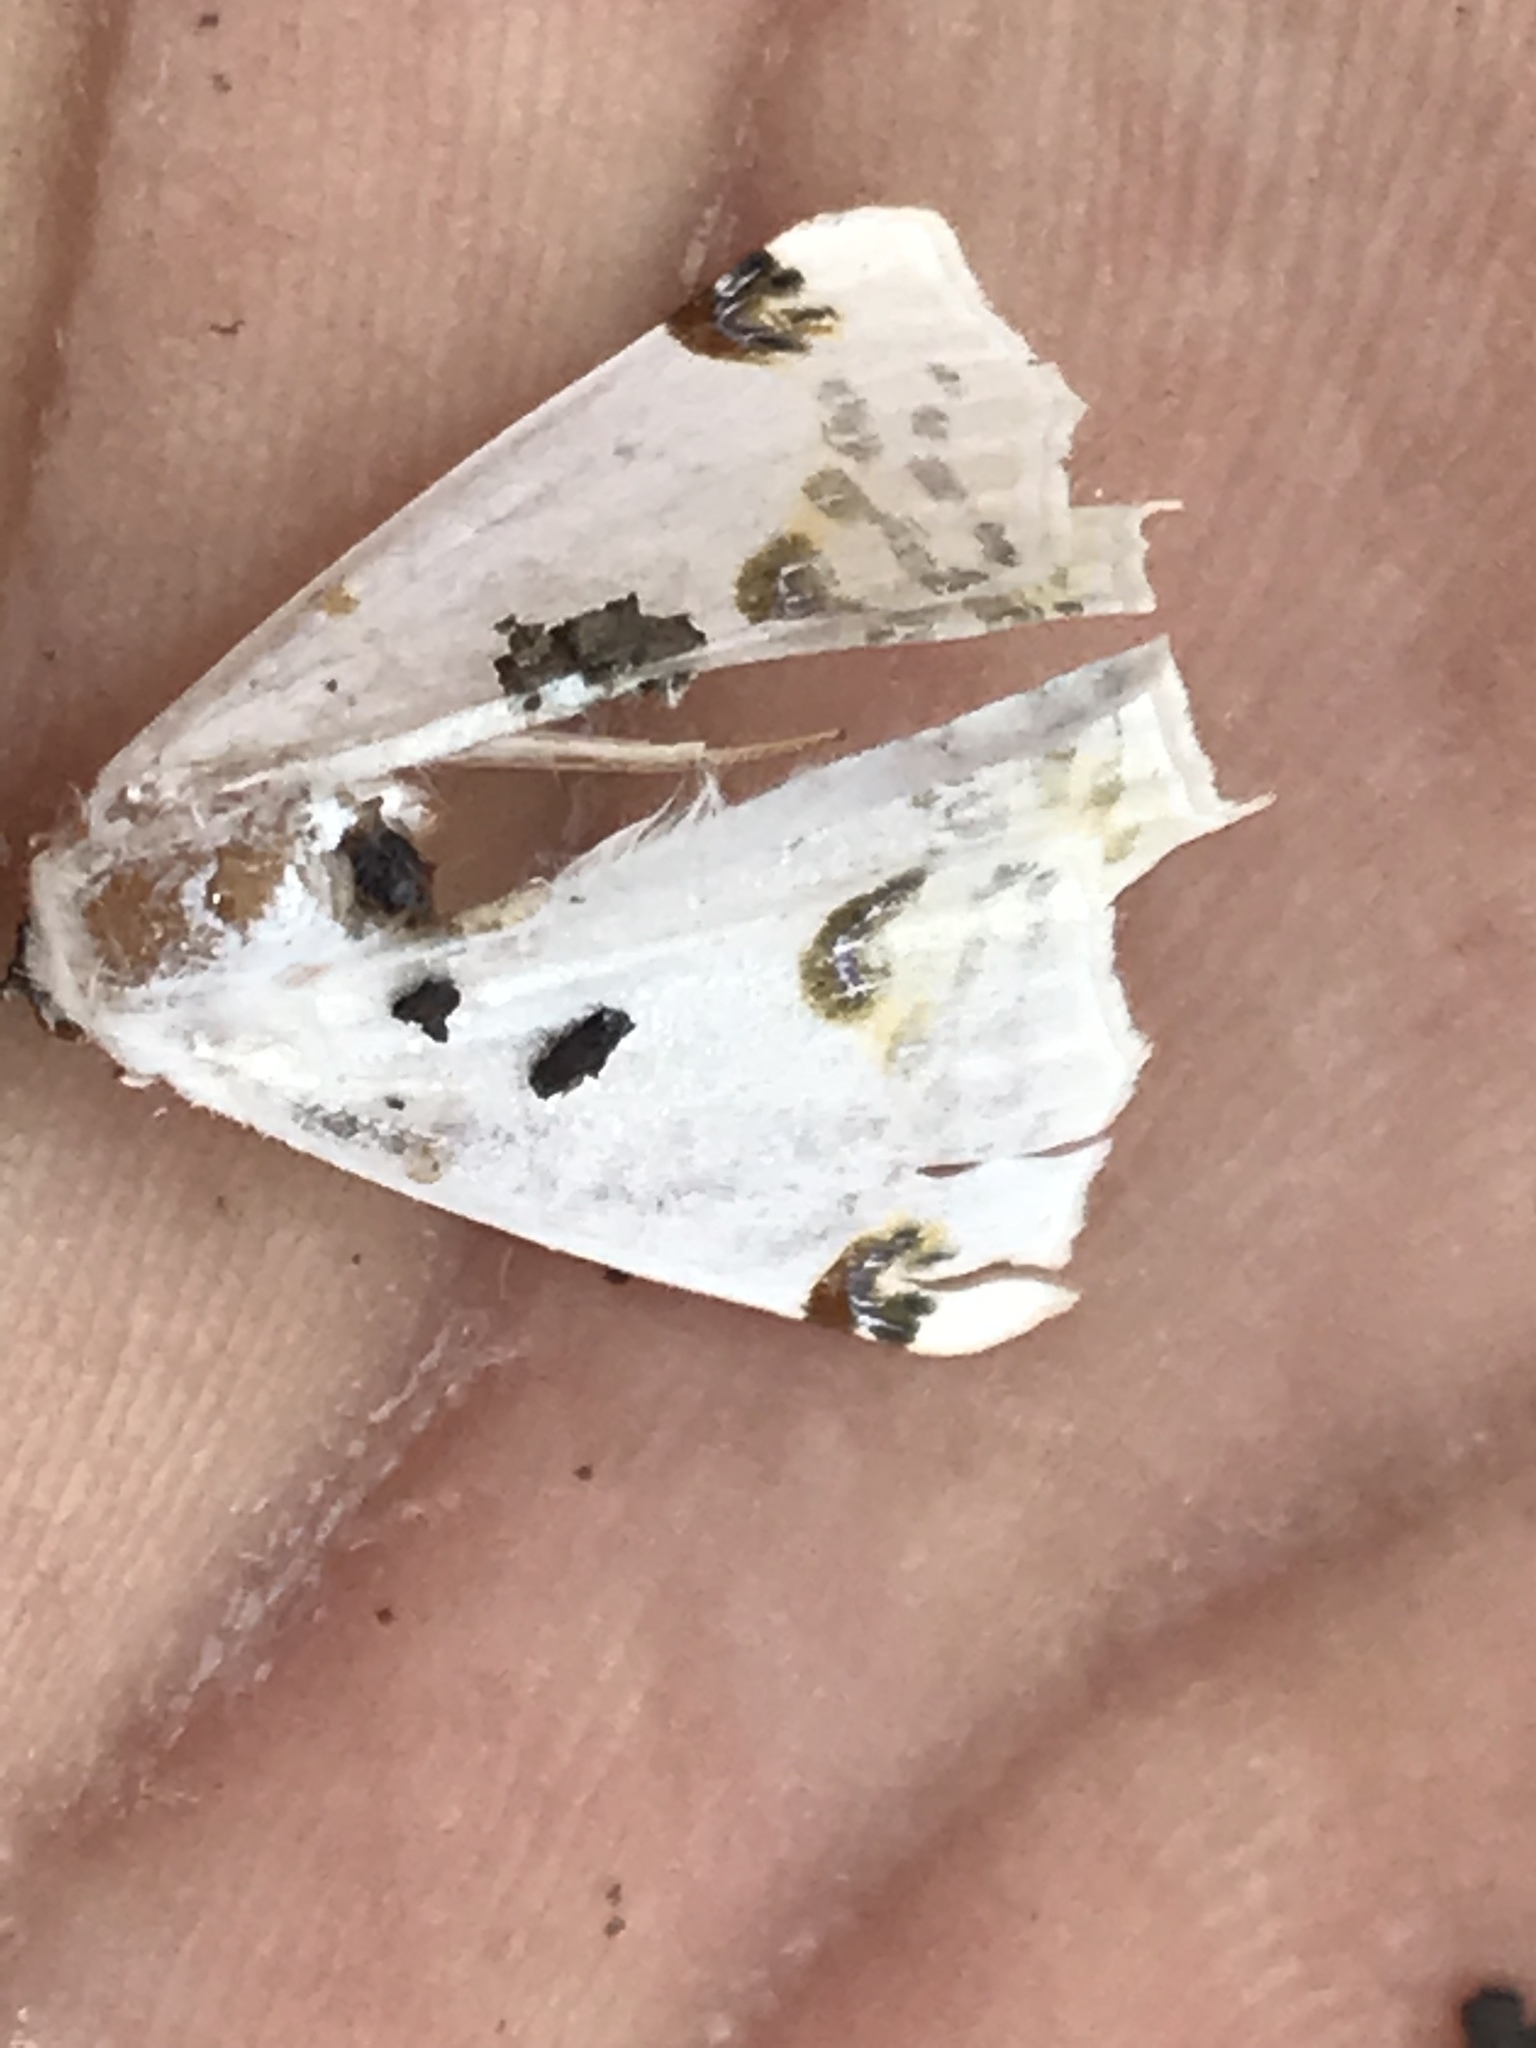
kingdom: Animalia
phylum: Arthropoda
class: Insecta
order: Lepidoptera
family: Geometridae
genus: Sericoptera
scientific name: Sericoptera mahometaria
